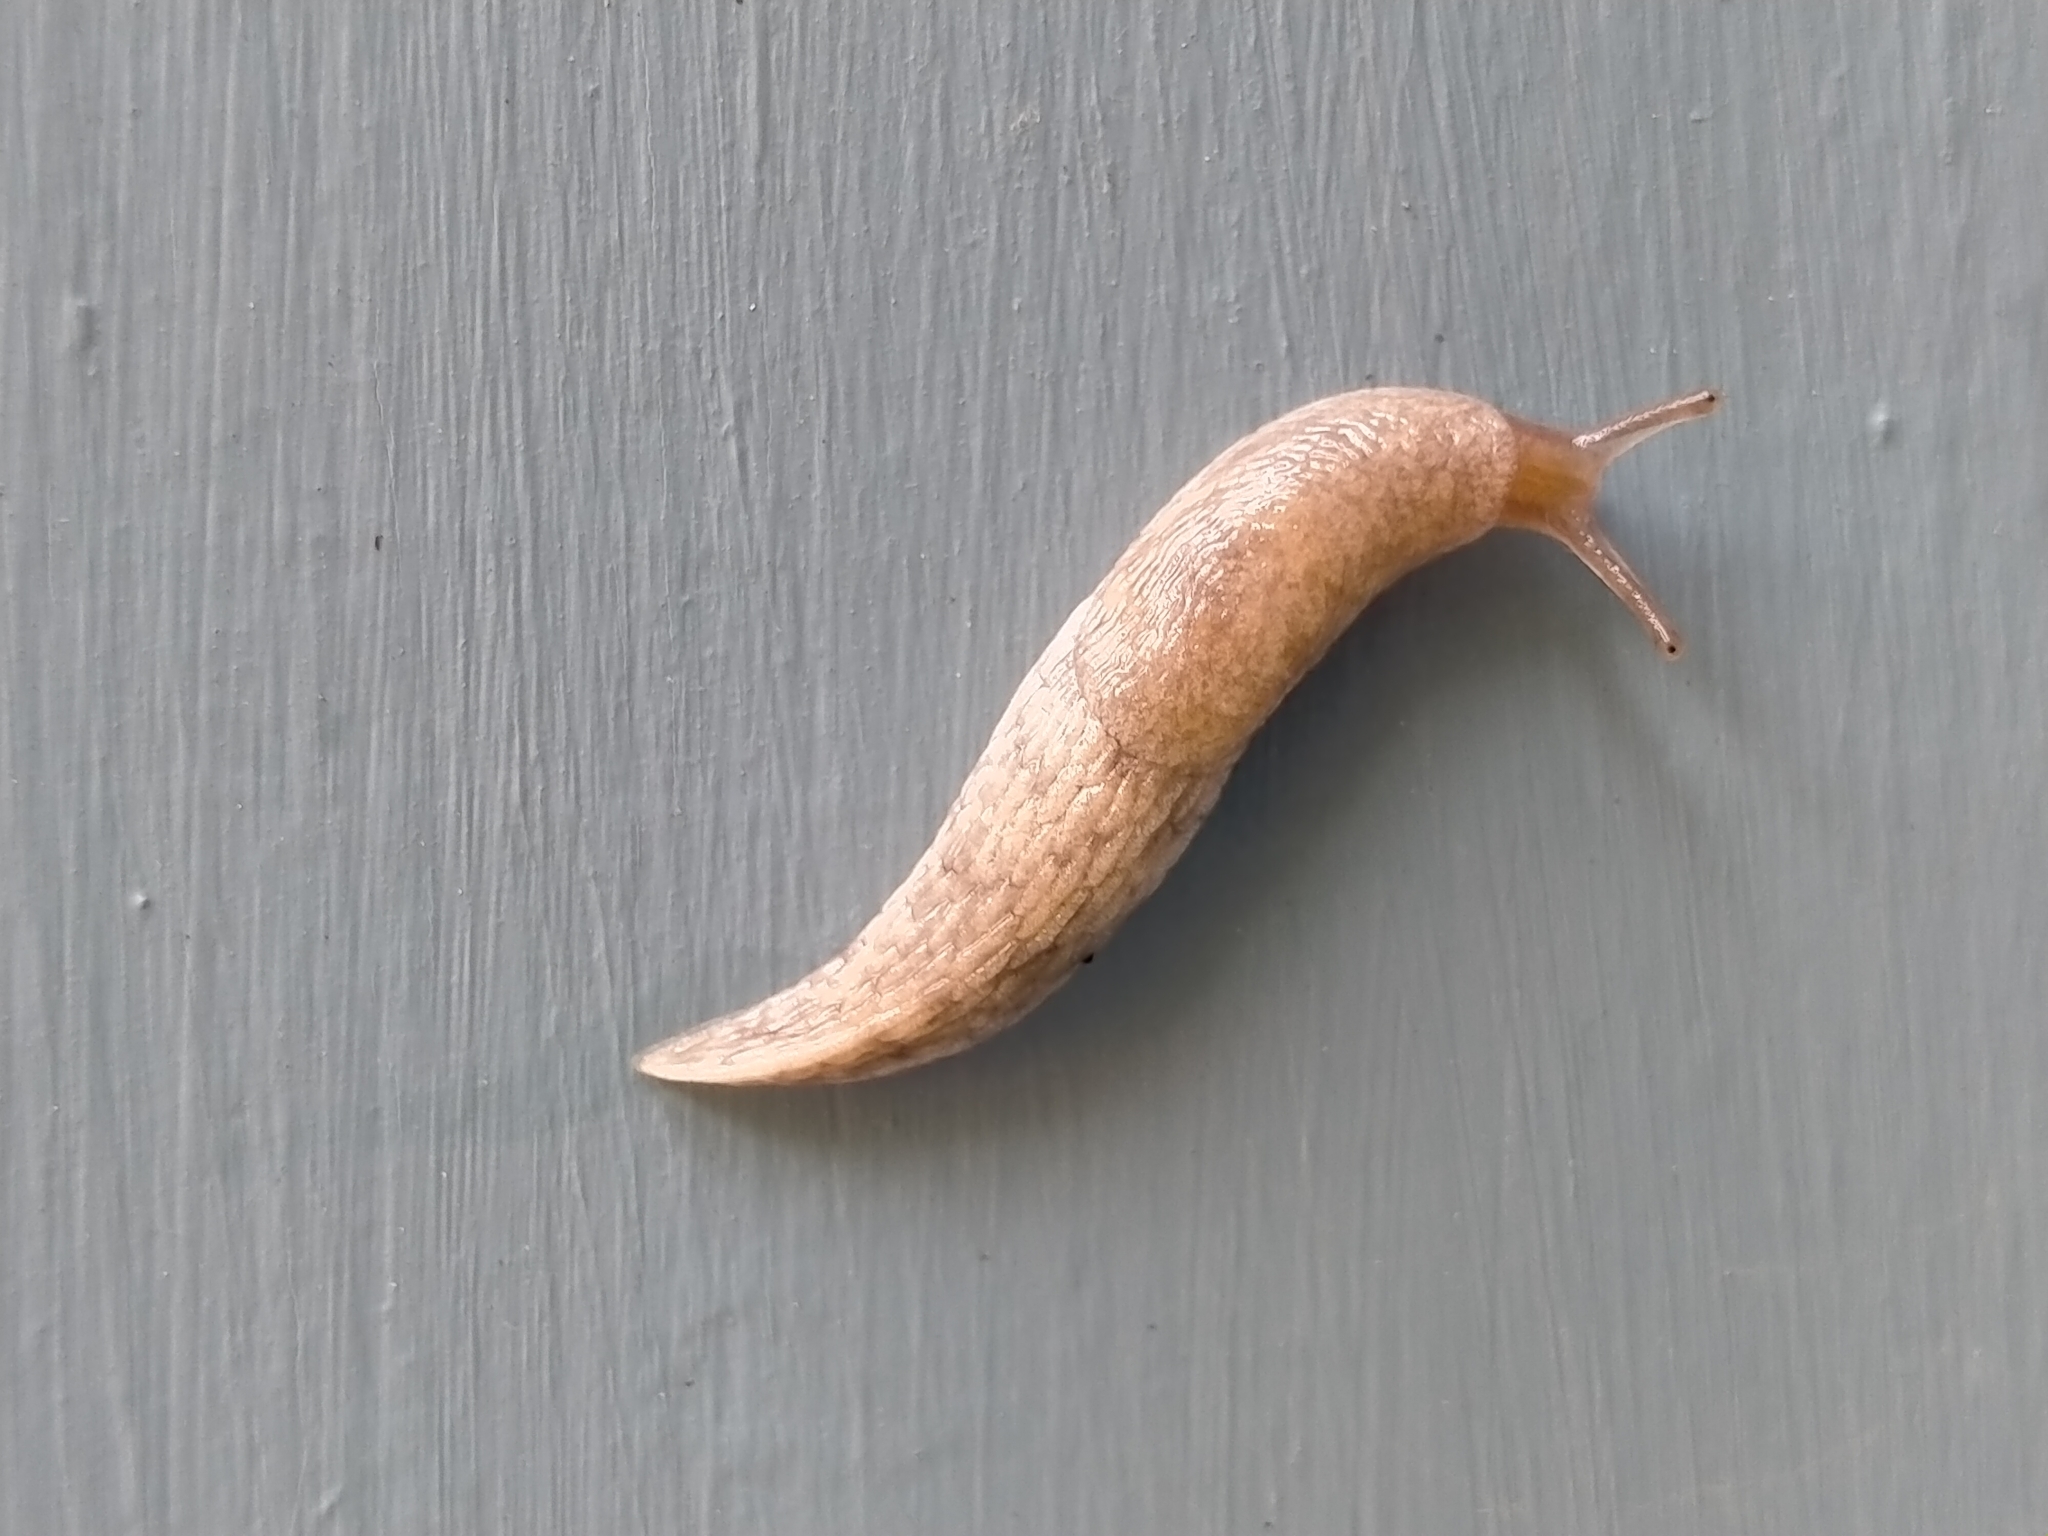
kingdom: Animalia
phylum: Mollusca
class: Gastropoda
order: Stylommatophora
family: Agriolimacidae
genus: Deroceras
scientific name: Deroceras reticulatum
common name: Gray field slug
